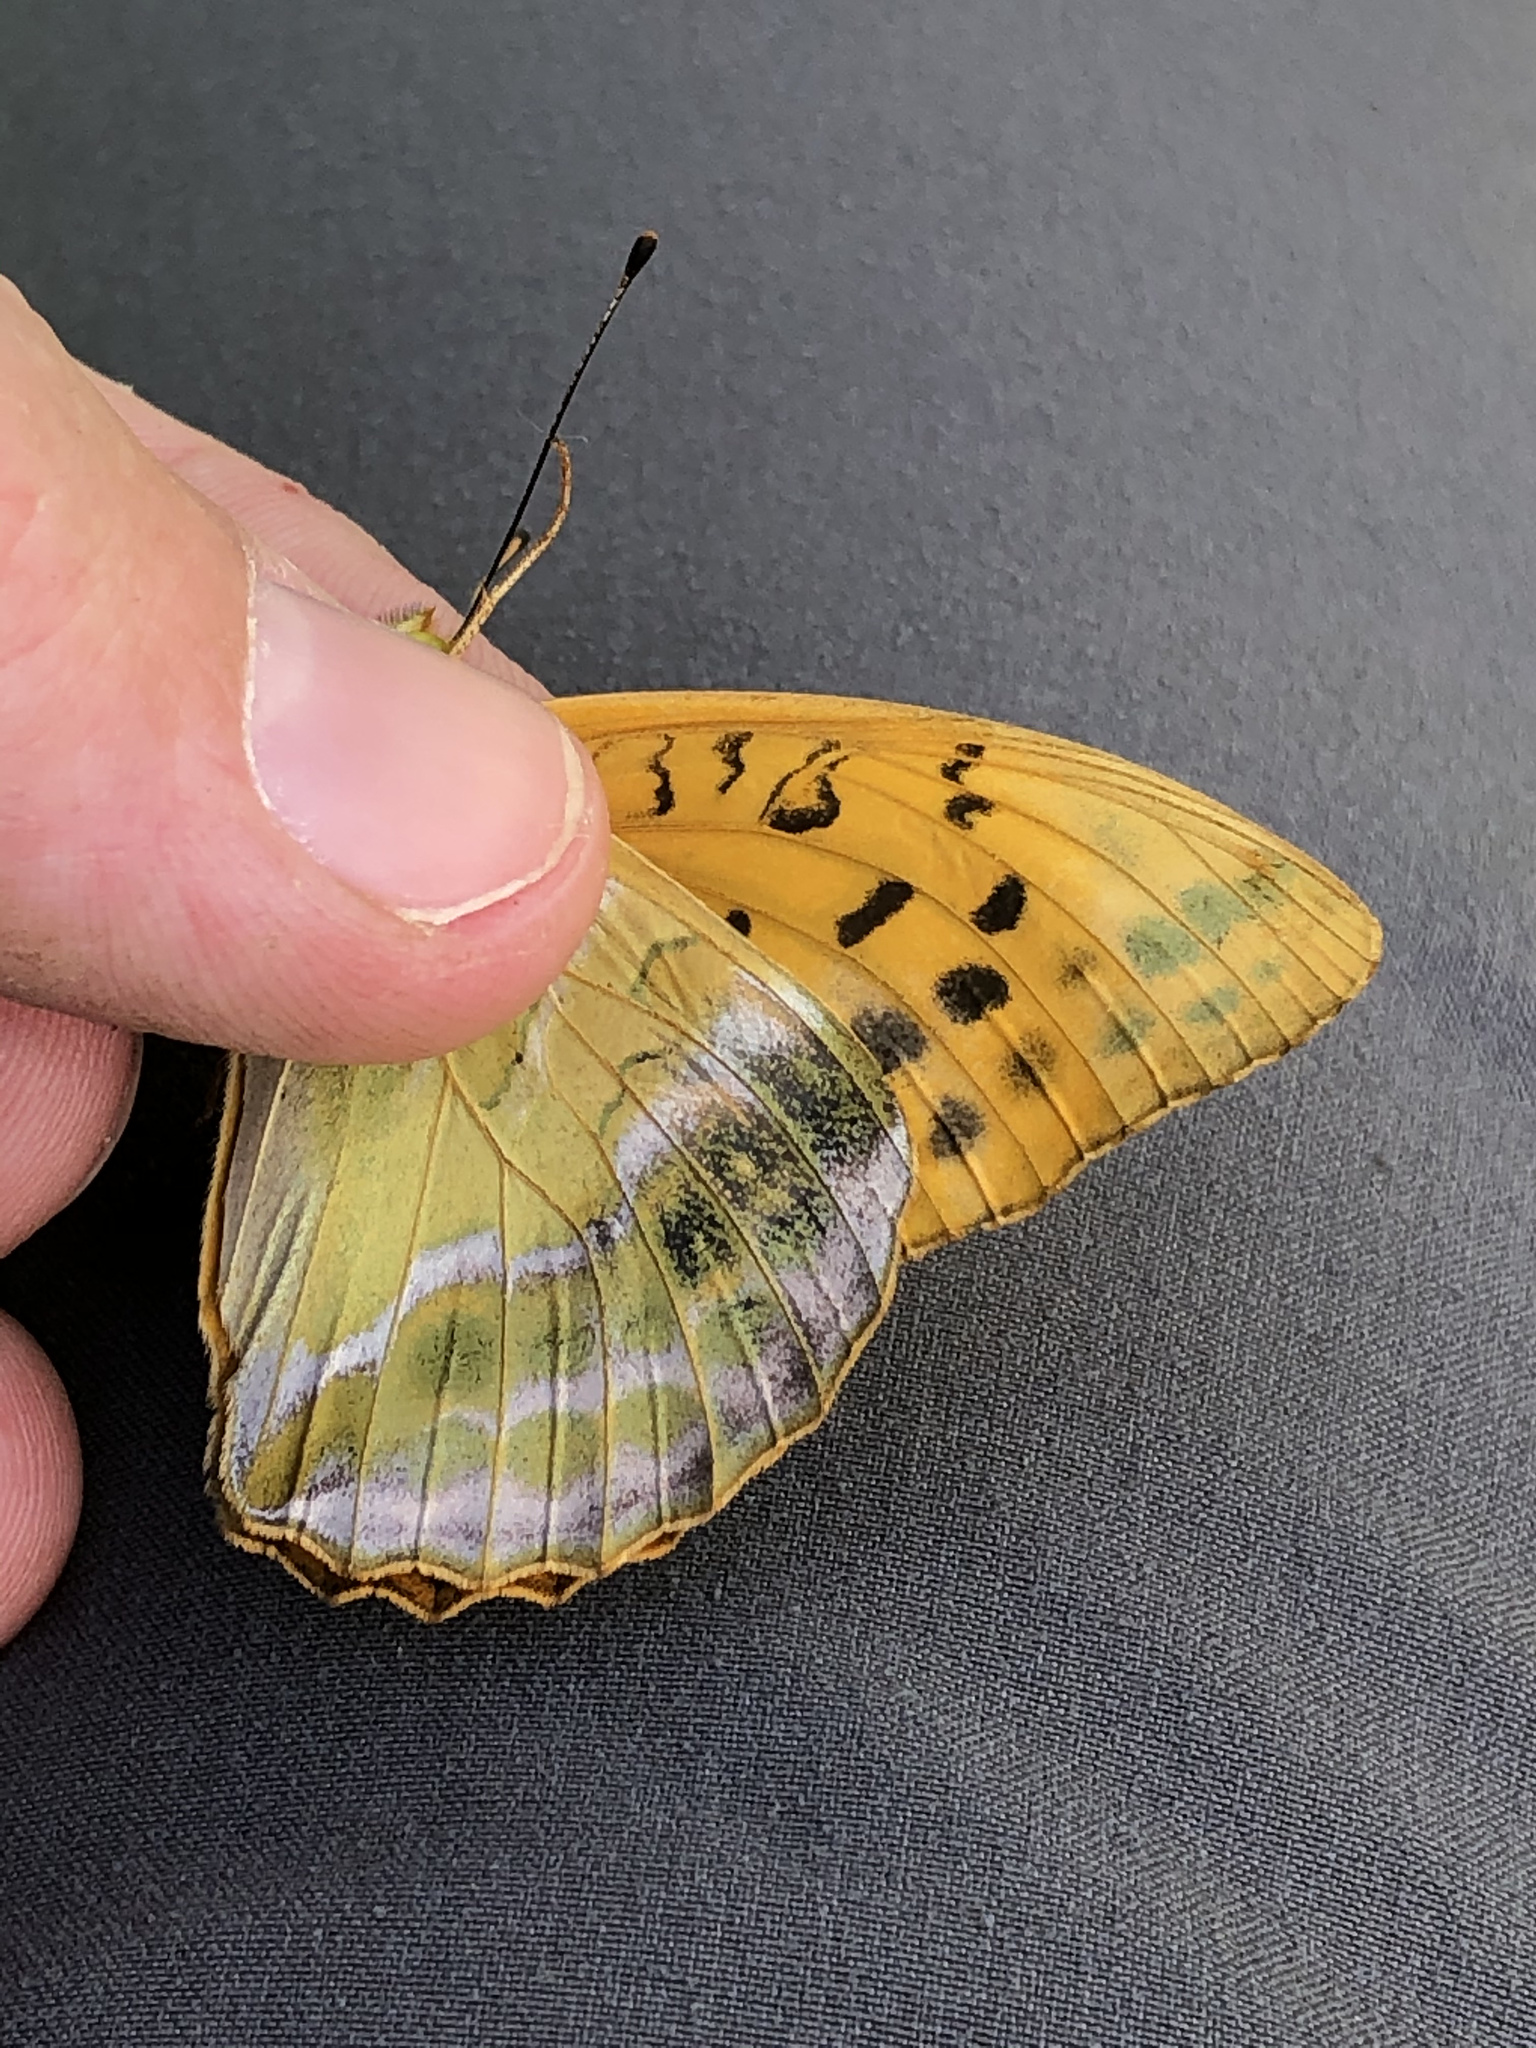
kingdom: Animalia
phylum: Arthropoda
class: Insecta
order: Lepidoptera
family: Nymphalidae
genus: Argynnis
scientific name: Argynnis paphia
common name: Silver-washed fritillary
